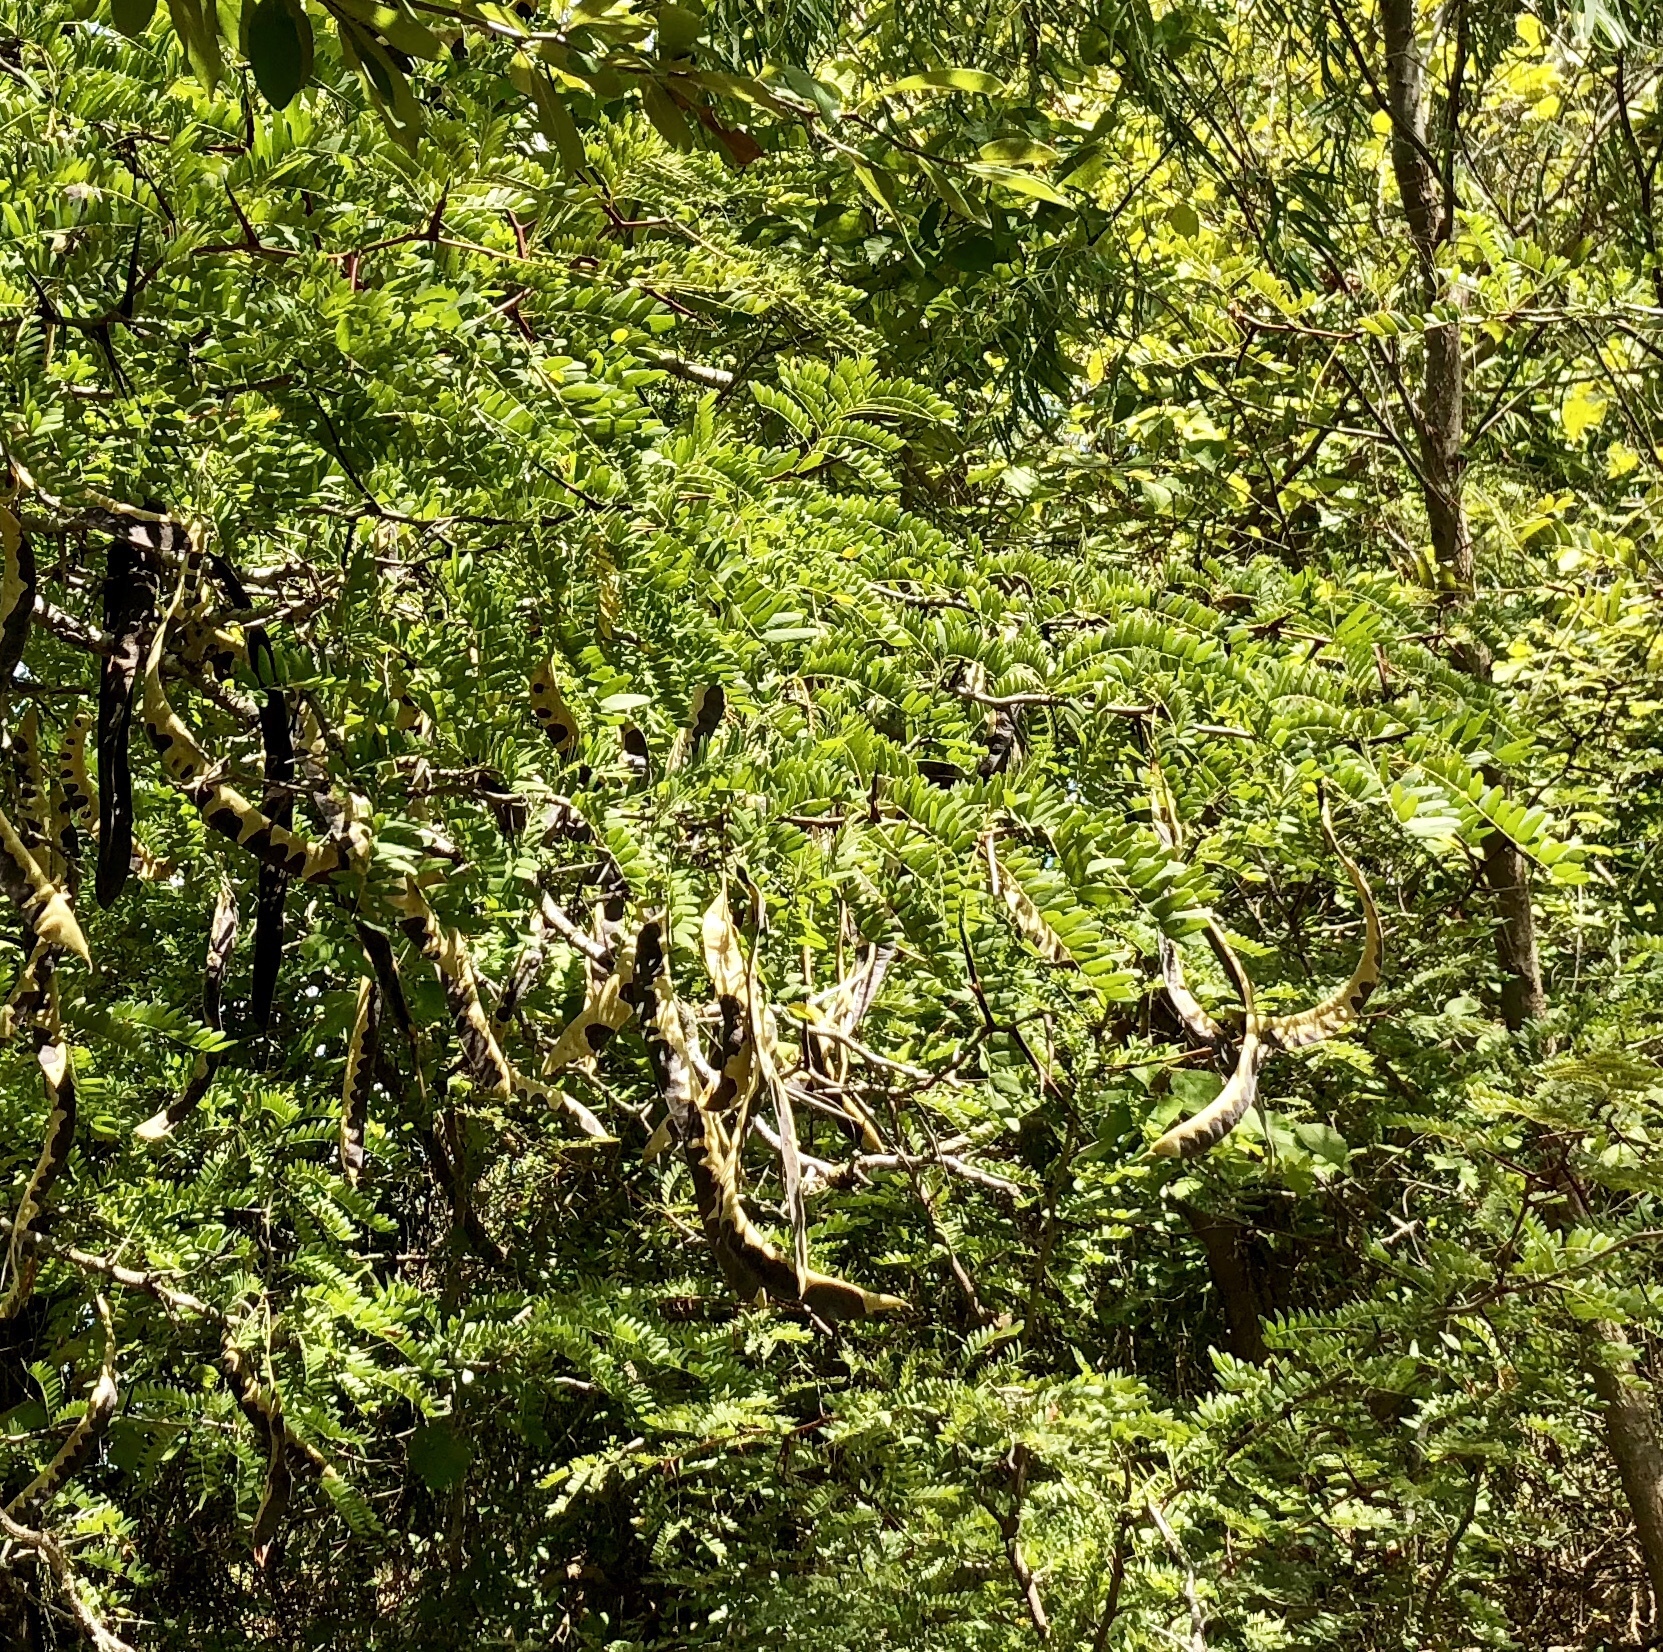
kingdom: Plantae
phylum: Tracheophyta
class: Magnoliopsida
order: Fabales
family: Fabaceae
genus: Gleditsia
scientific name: Gleditsia triacanthos
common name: Common honeylocust
